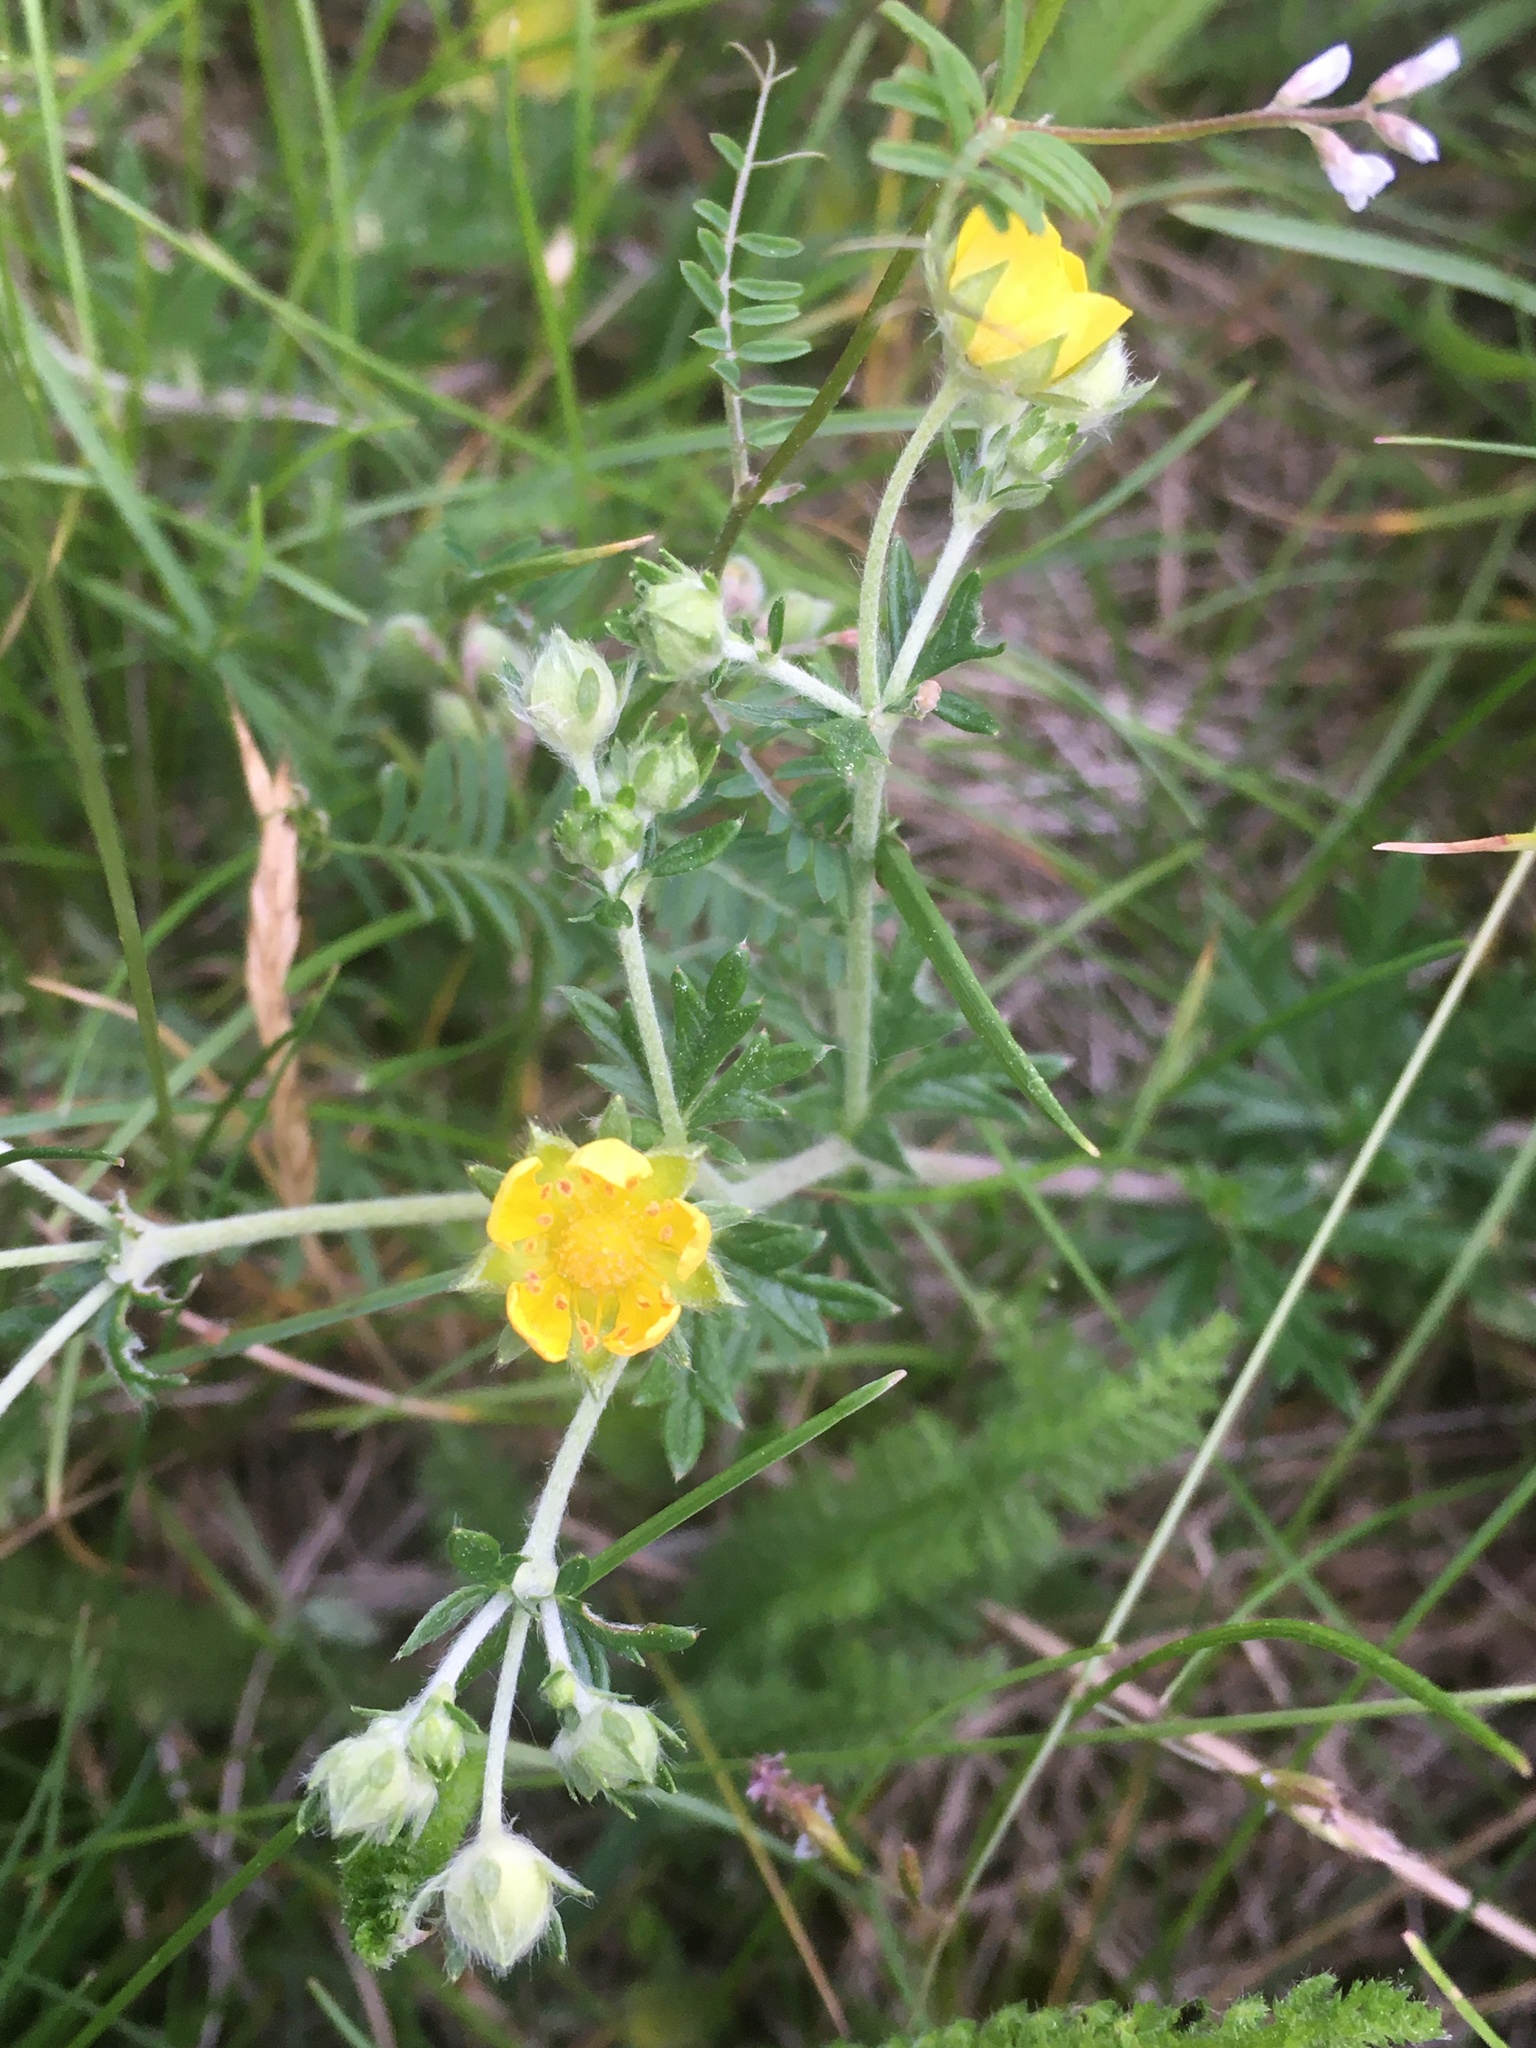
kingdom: Plantae
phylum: Tracheophyta
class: Magnoliopsida
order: Rosales
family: Rosaceae
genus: Potentilla
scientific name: Potentilla argentea
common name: Hoary cinquefoil
